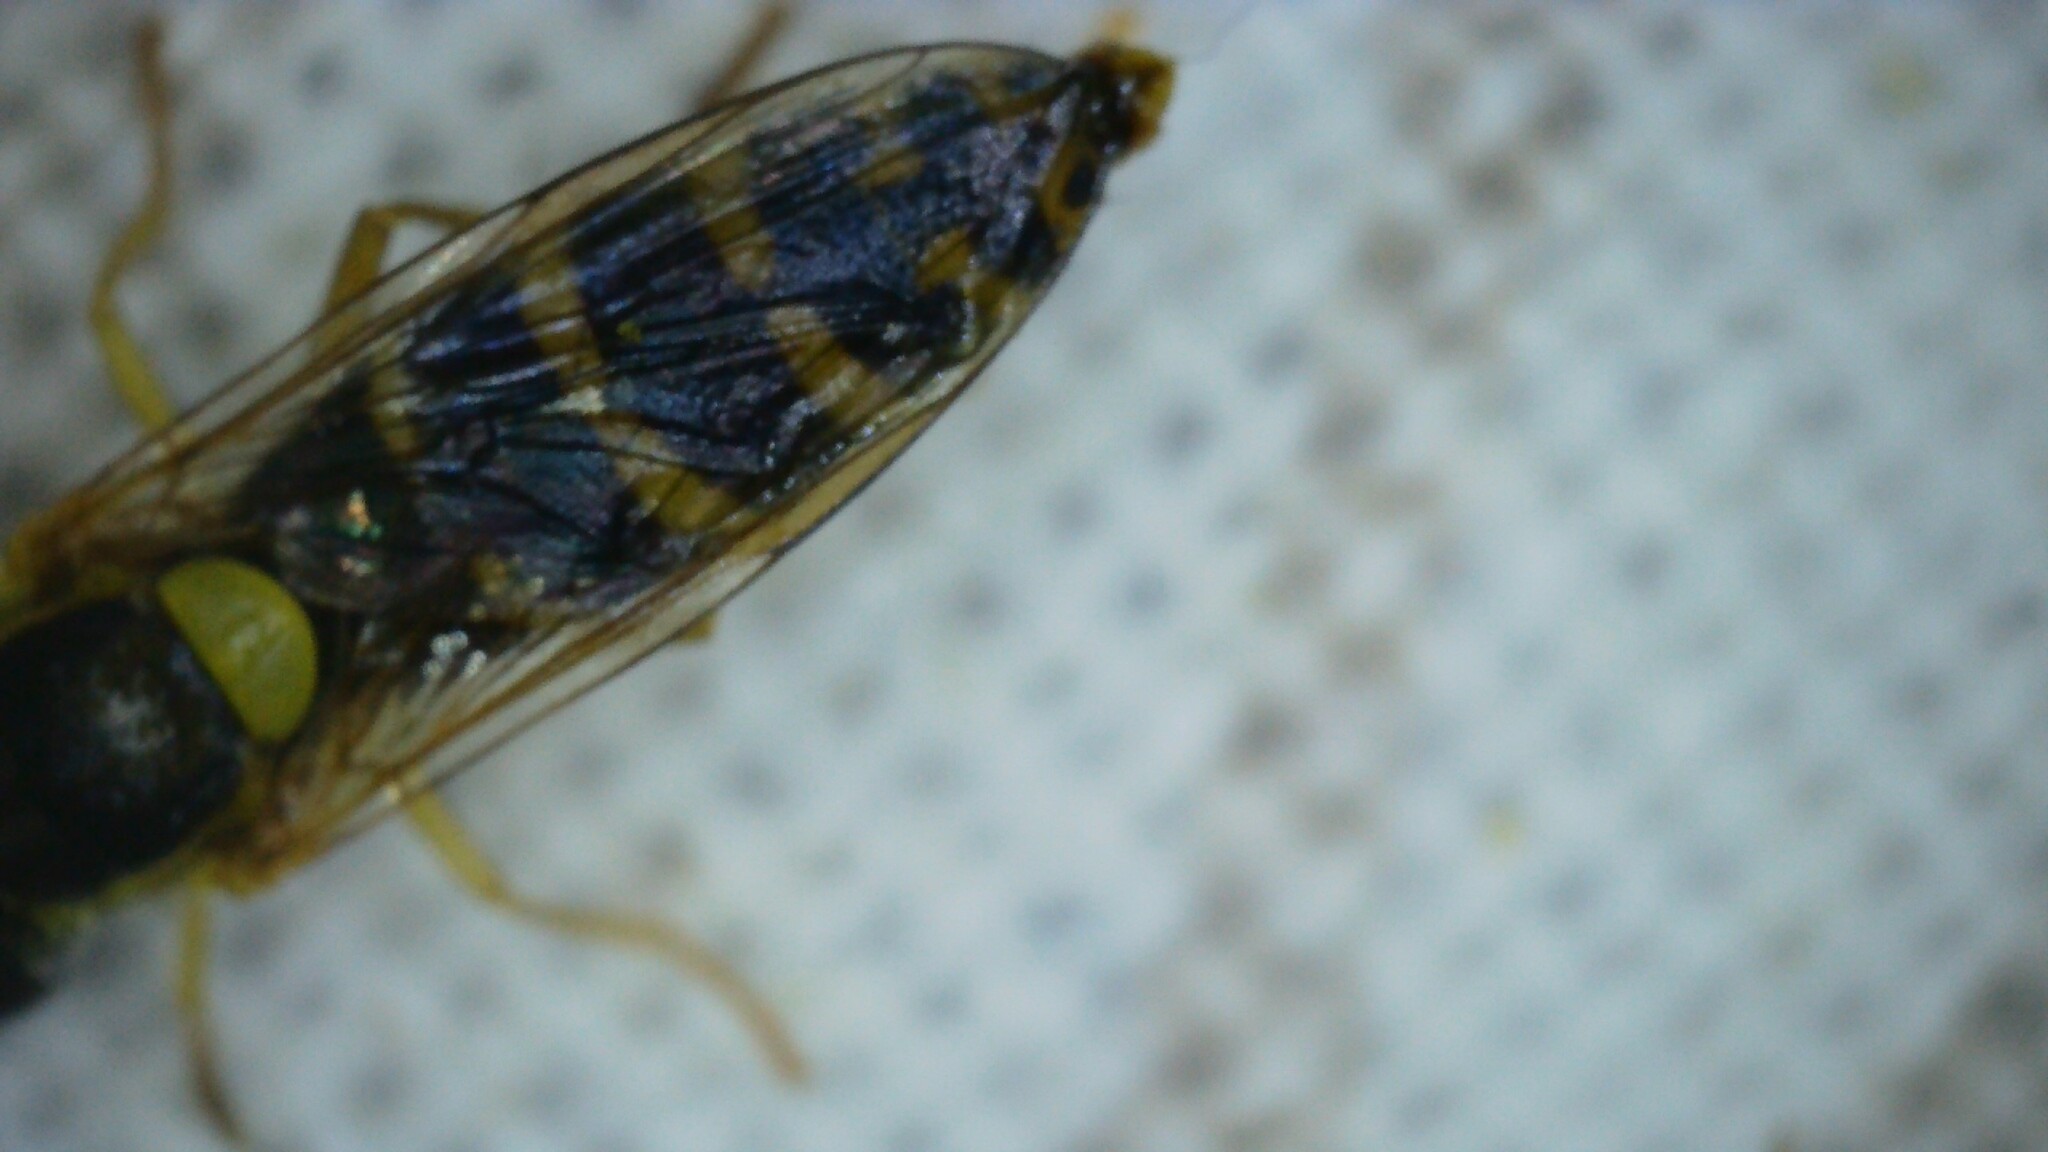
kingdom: Animalia
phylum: Arthropoda
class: Insecta
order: Diptera
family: Syrphidae
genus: Sphaerophoria
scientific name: Sphaerophoria
